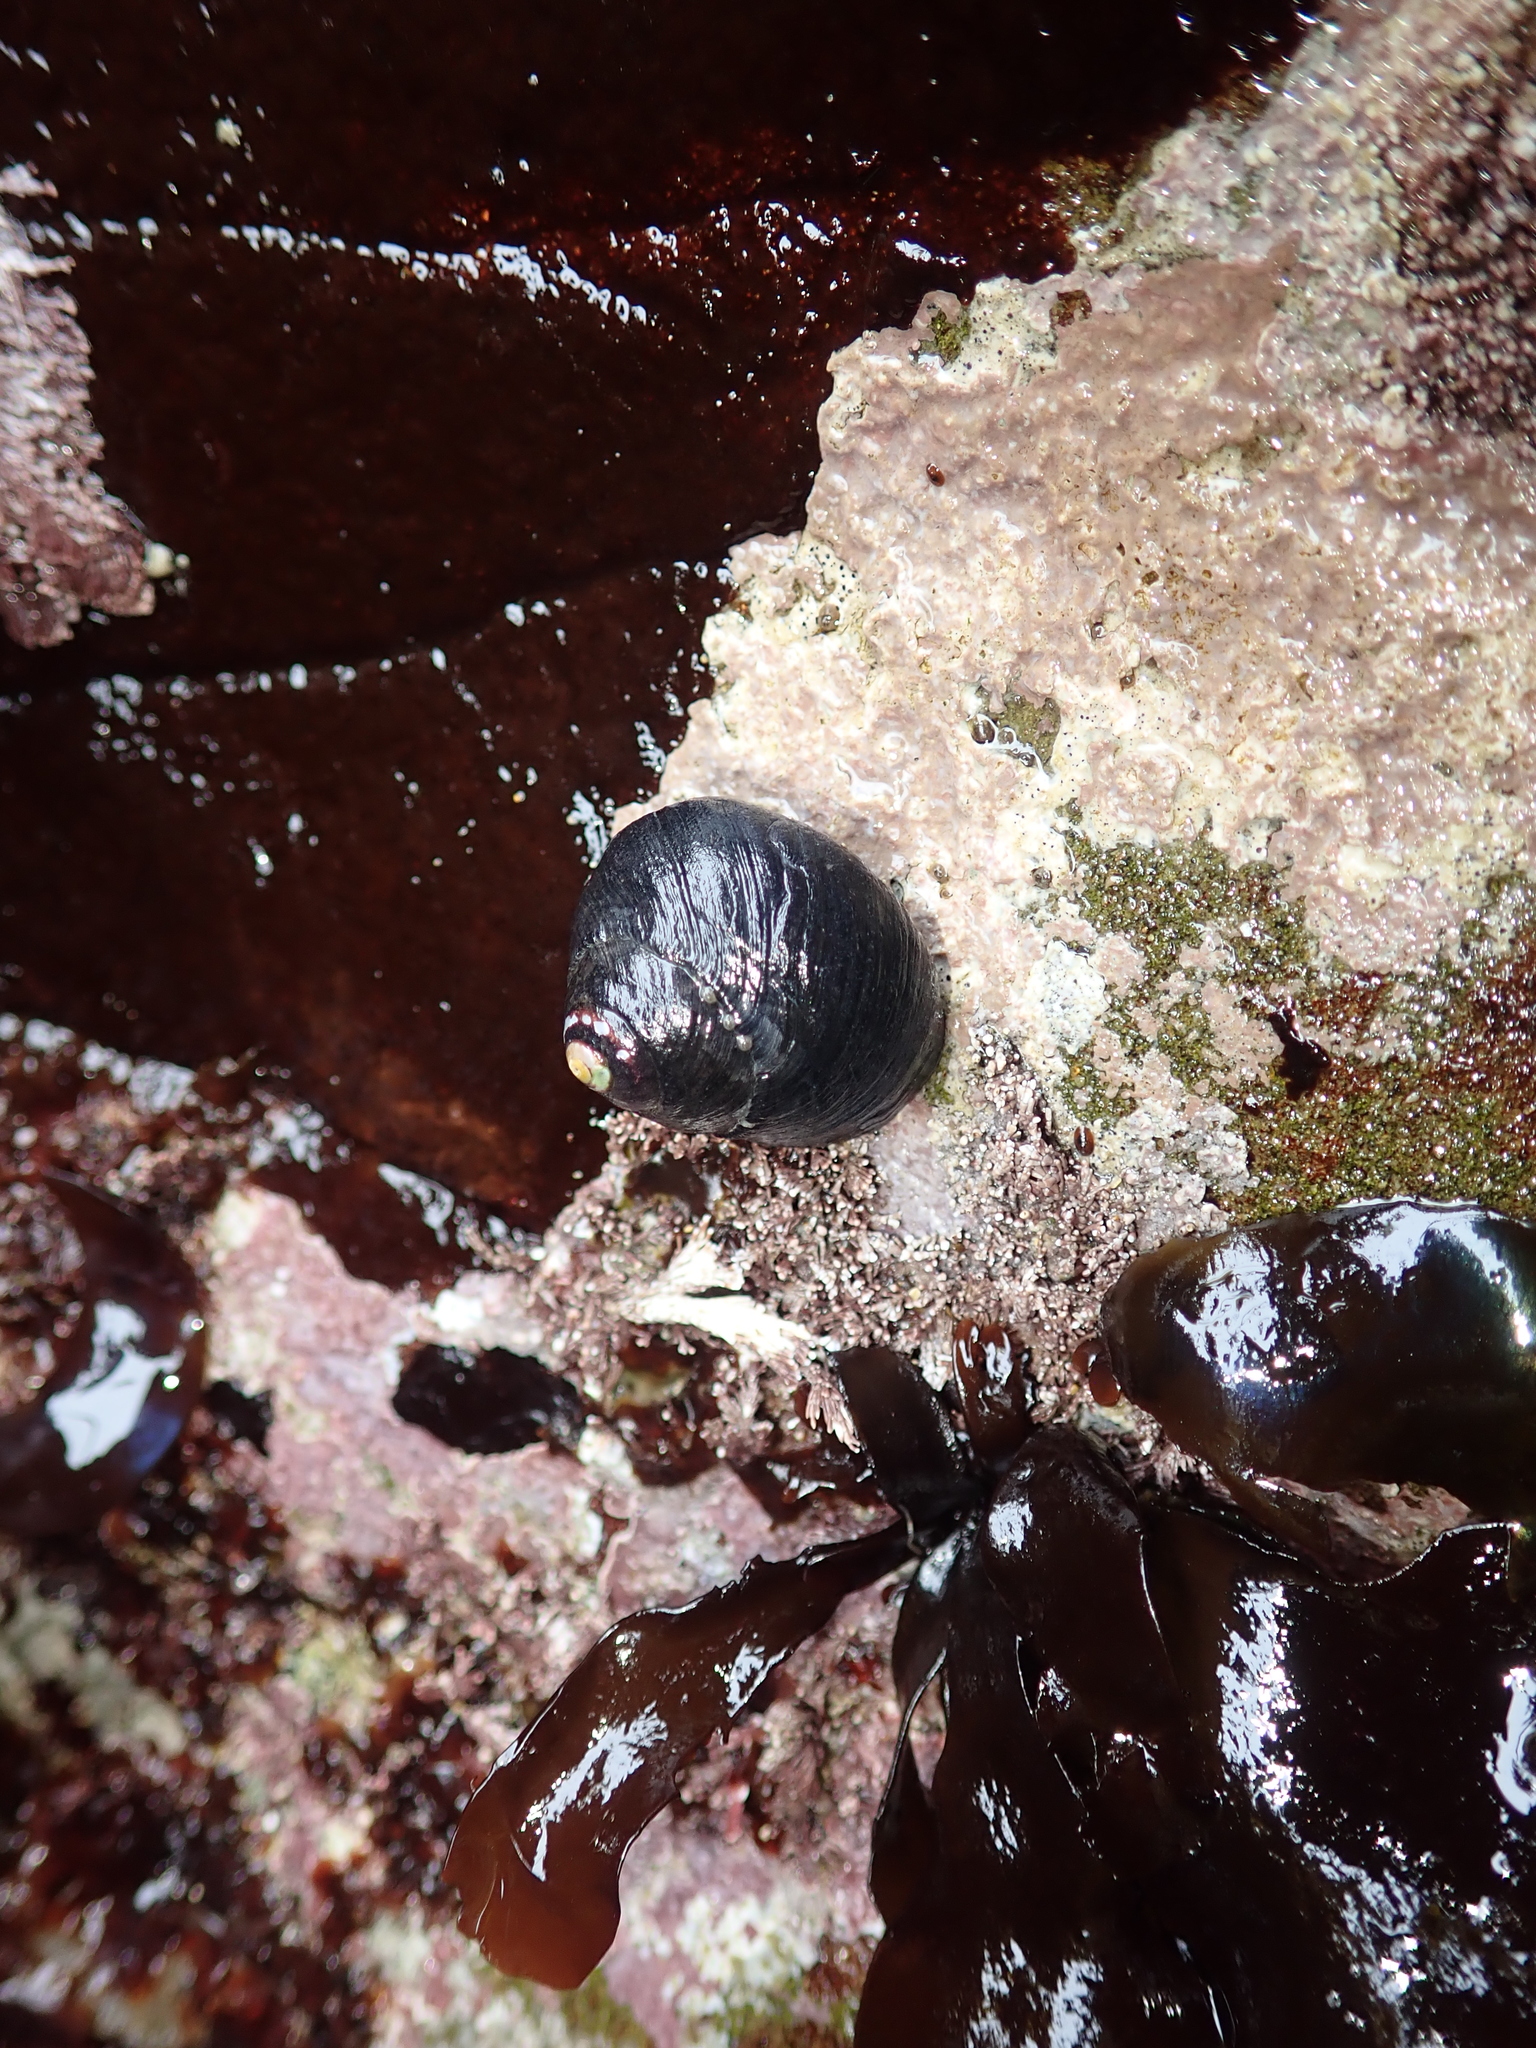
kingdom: Animalia
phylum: Mollusca
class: Gastropoda
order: Trochida
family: Tegulidae
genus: Tegula
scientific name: Tegula funebralis
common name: Black tegula
